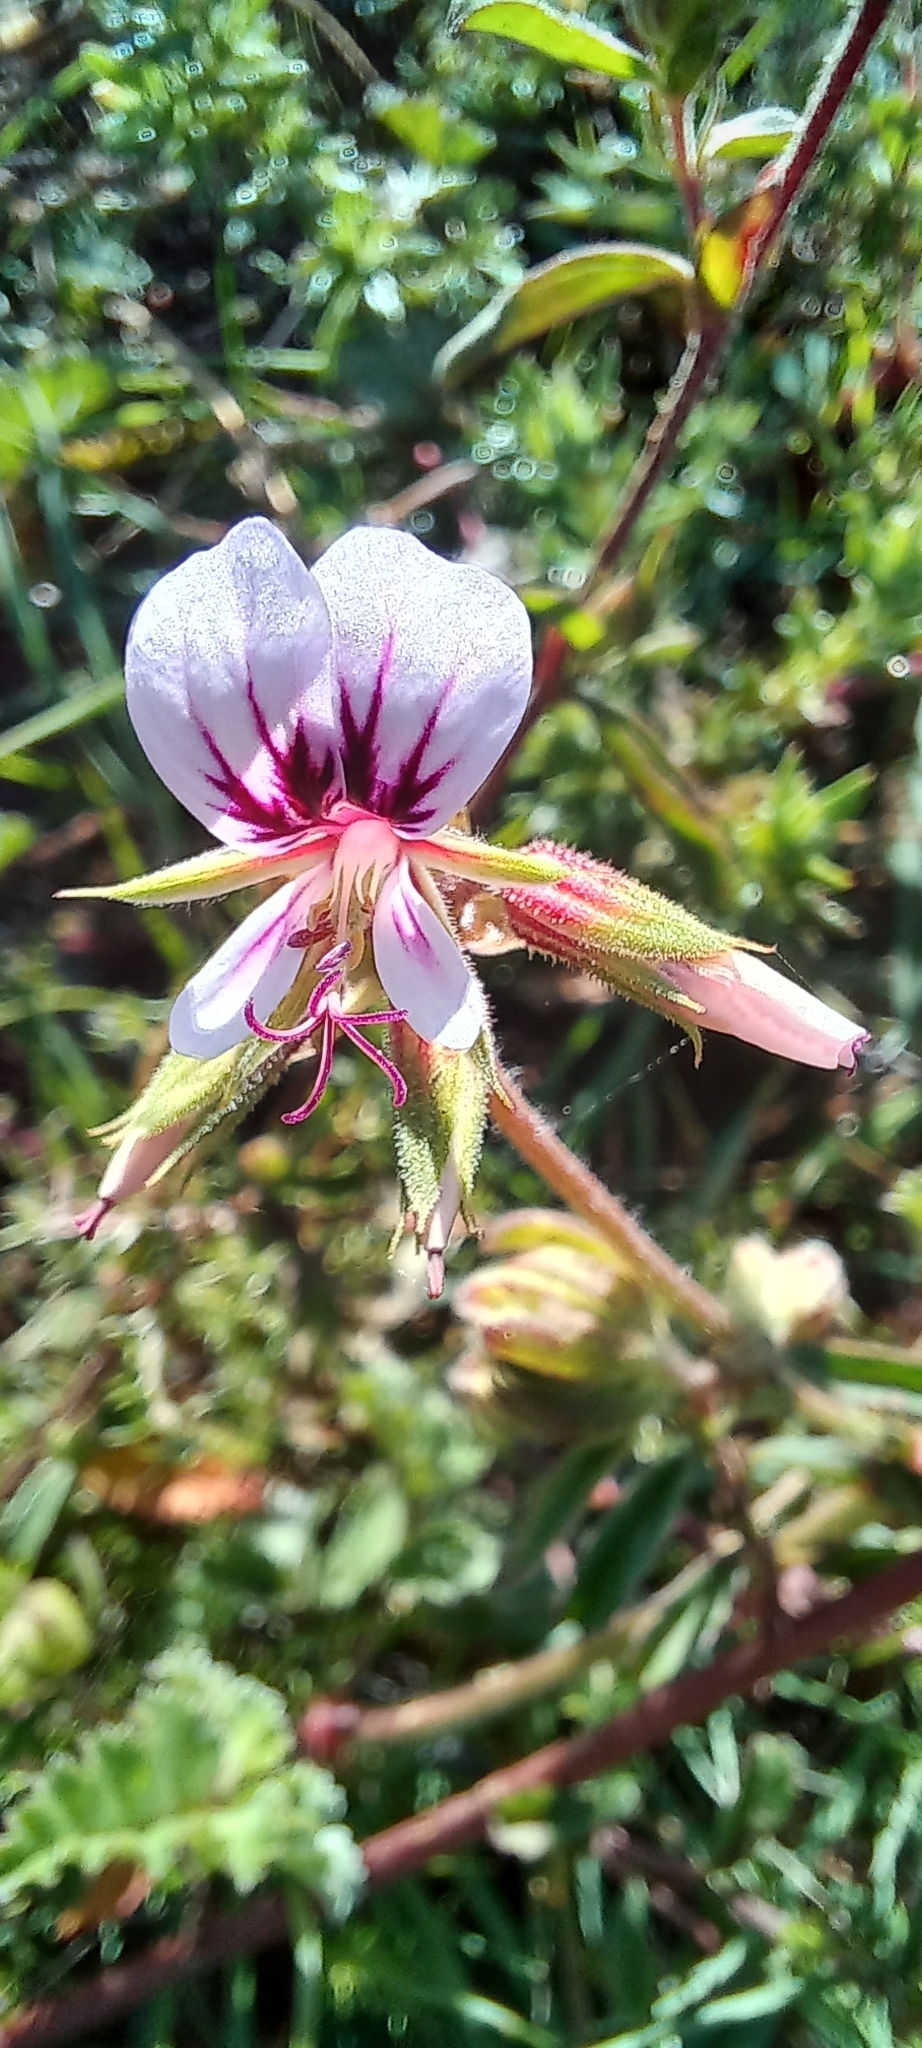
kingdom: Plantae
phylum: Tracheophyta
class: Magnoliopsida
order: Geraniales
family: Geraniaceae
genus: Pelargonium
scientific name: Pelargonium candicans
